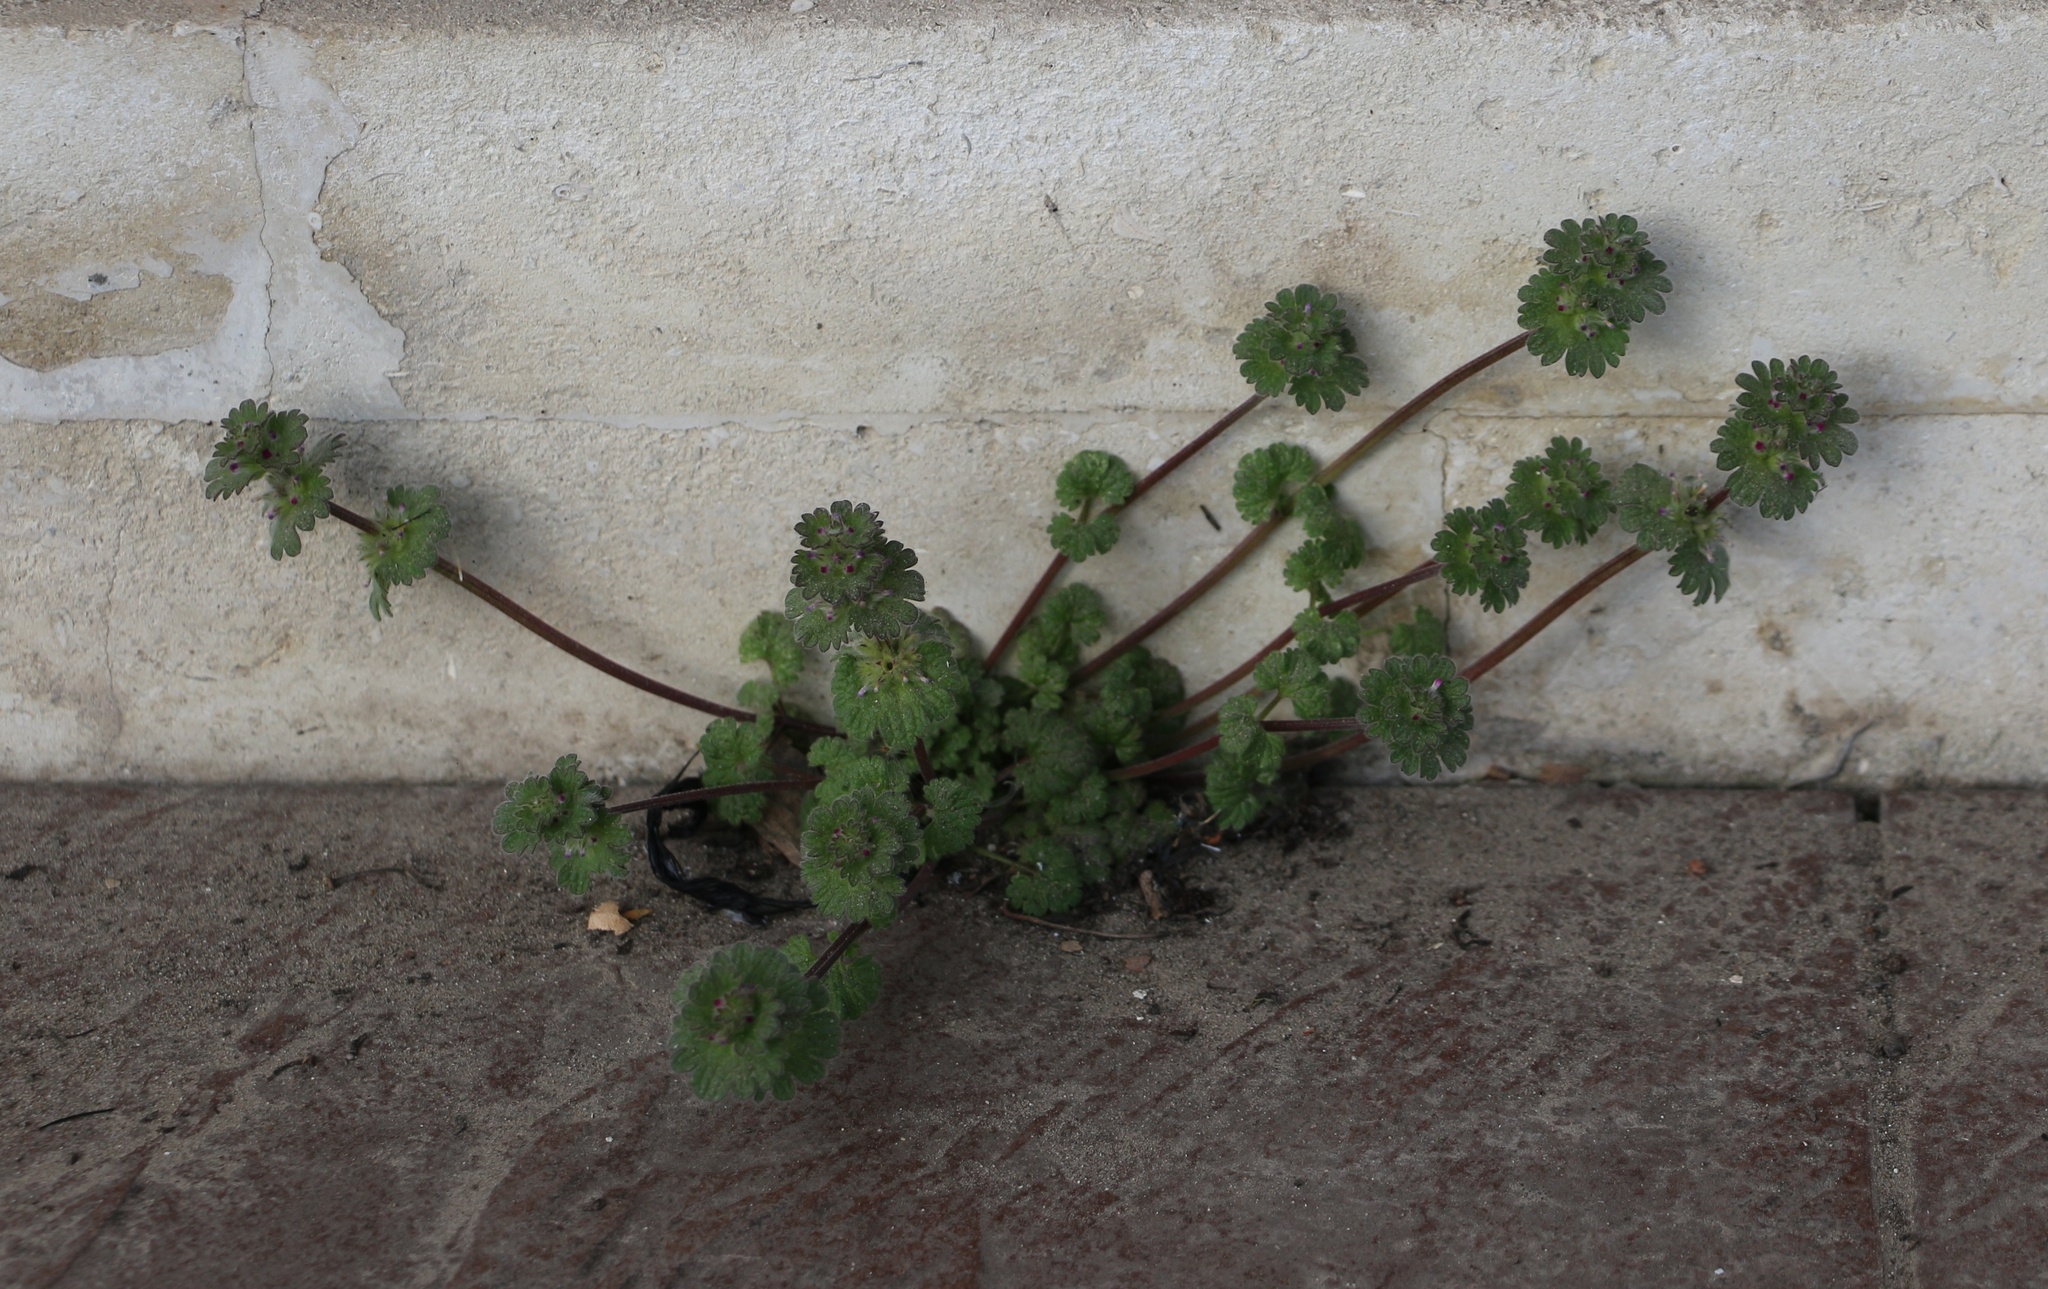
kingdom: Plantae
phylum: Tracheophyta
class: Magnoliopsida
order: Lamiales
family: Lamiaceae
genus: Lamium
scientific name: Lamium amplexicaule
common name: Henbit dead-nettle
